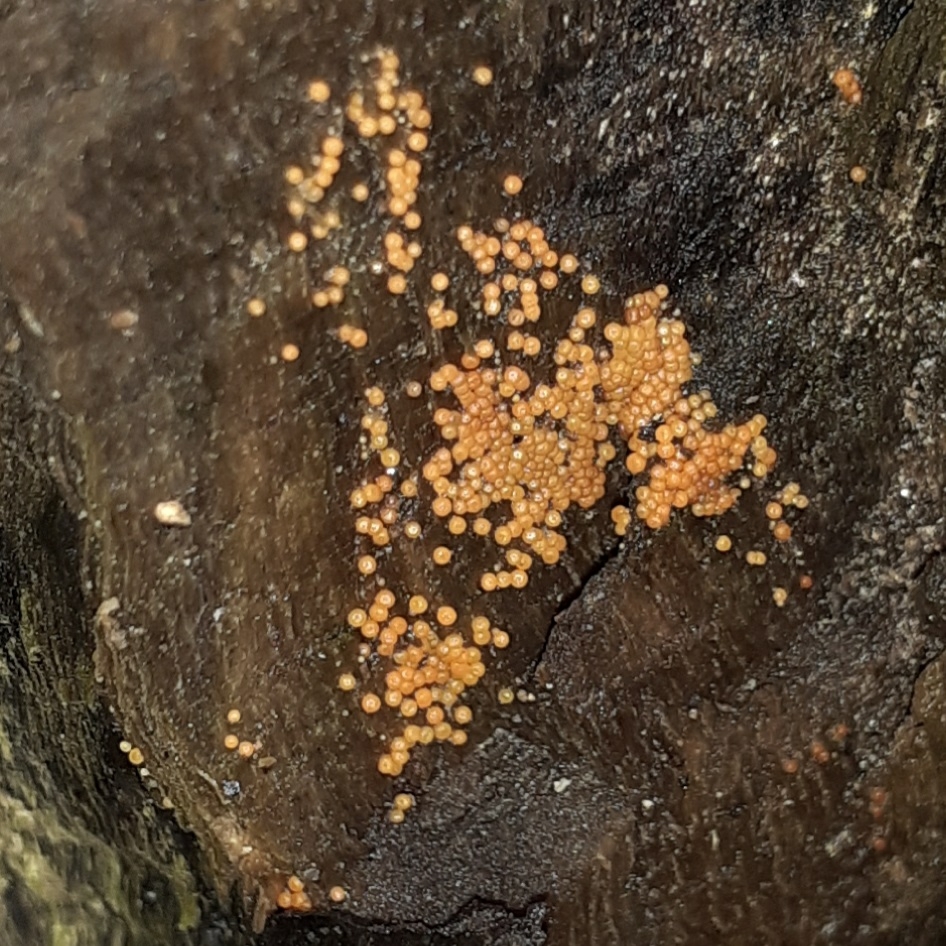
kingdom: Protozoa
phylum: Mycetozoa
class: Myxomycetes
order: Trichiales
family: Trichiaceae
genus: Trichia
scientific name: Trichia varia
